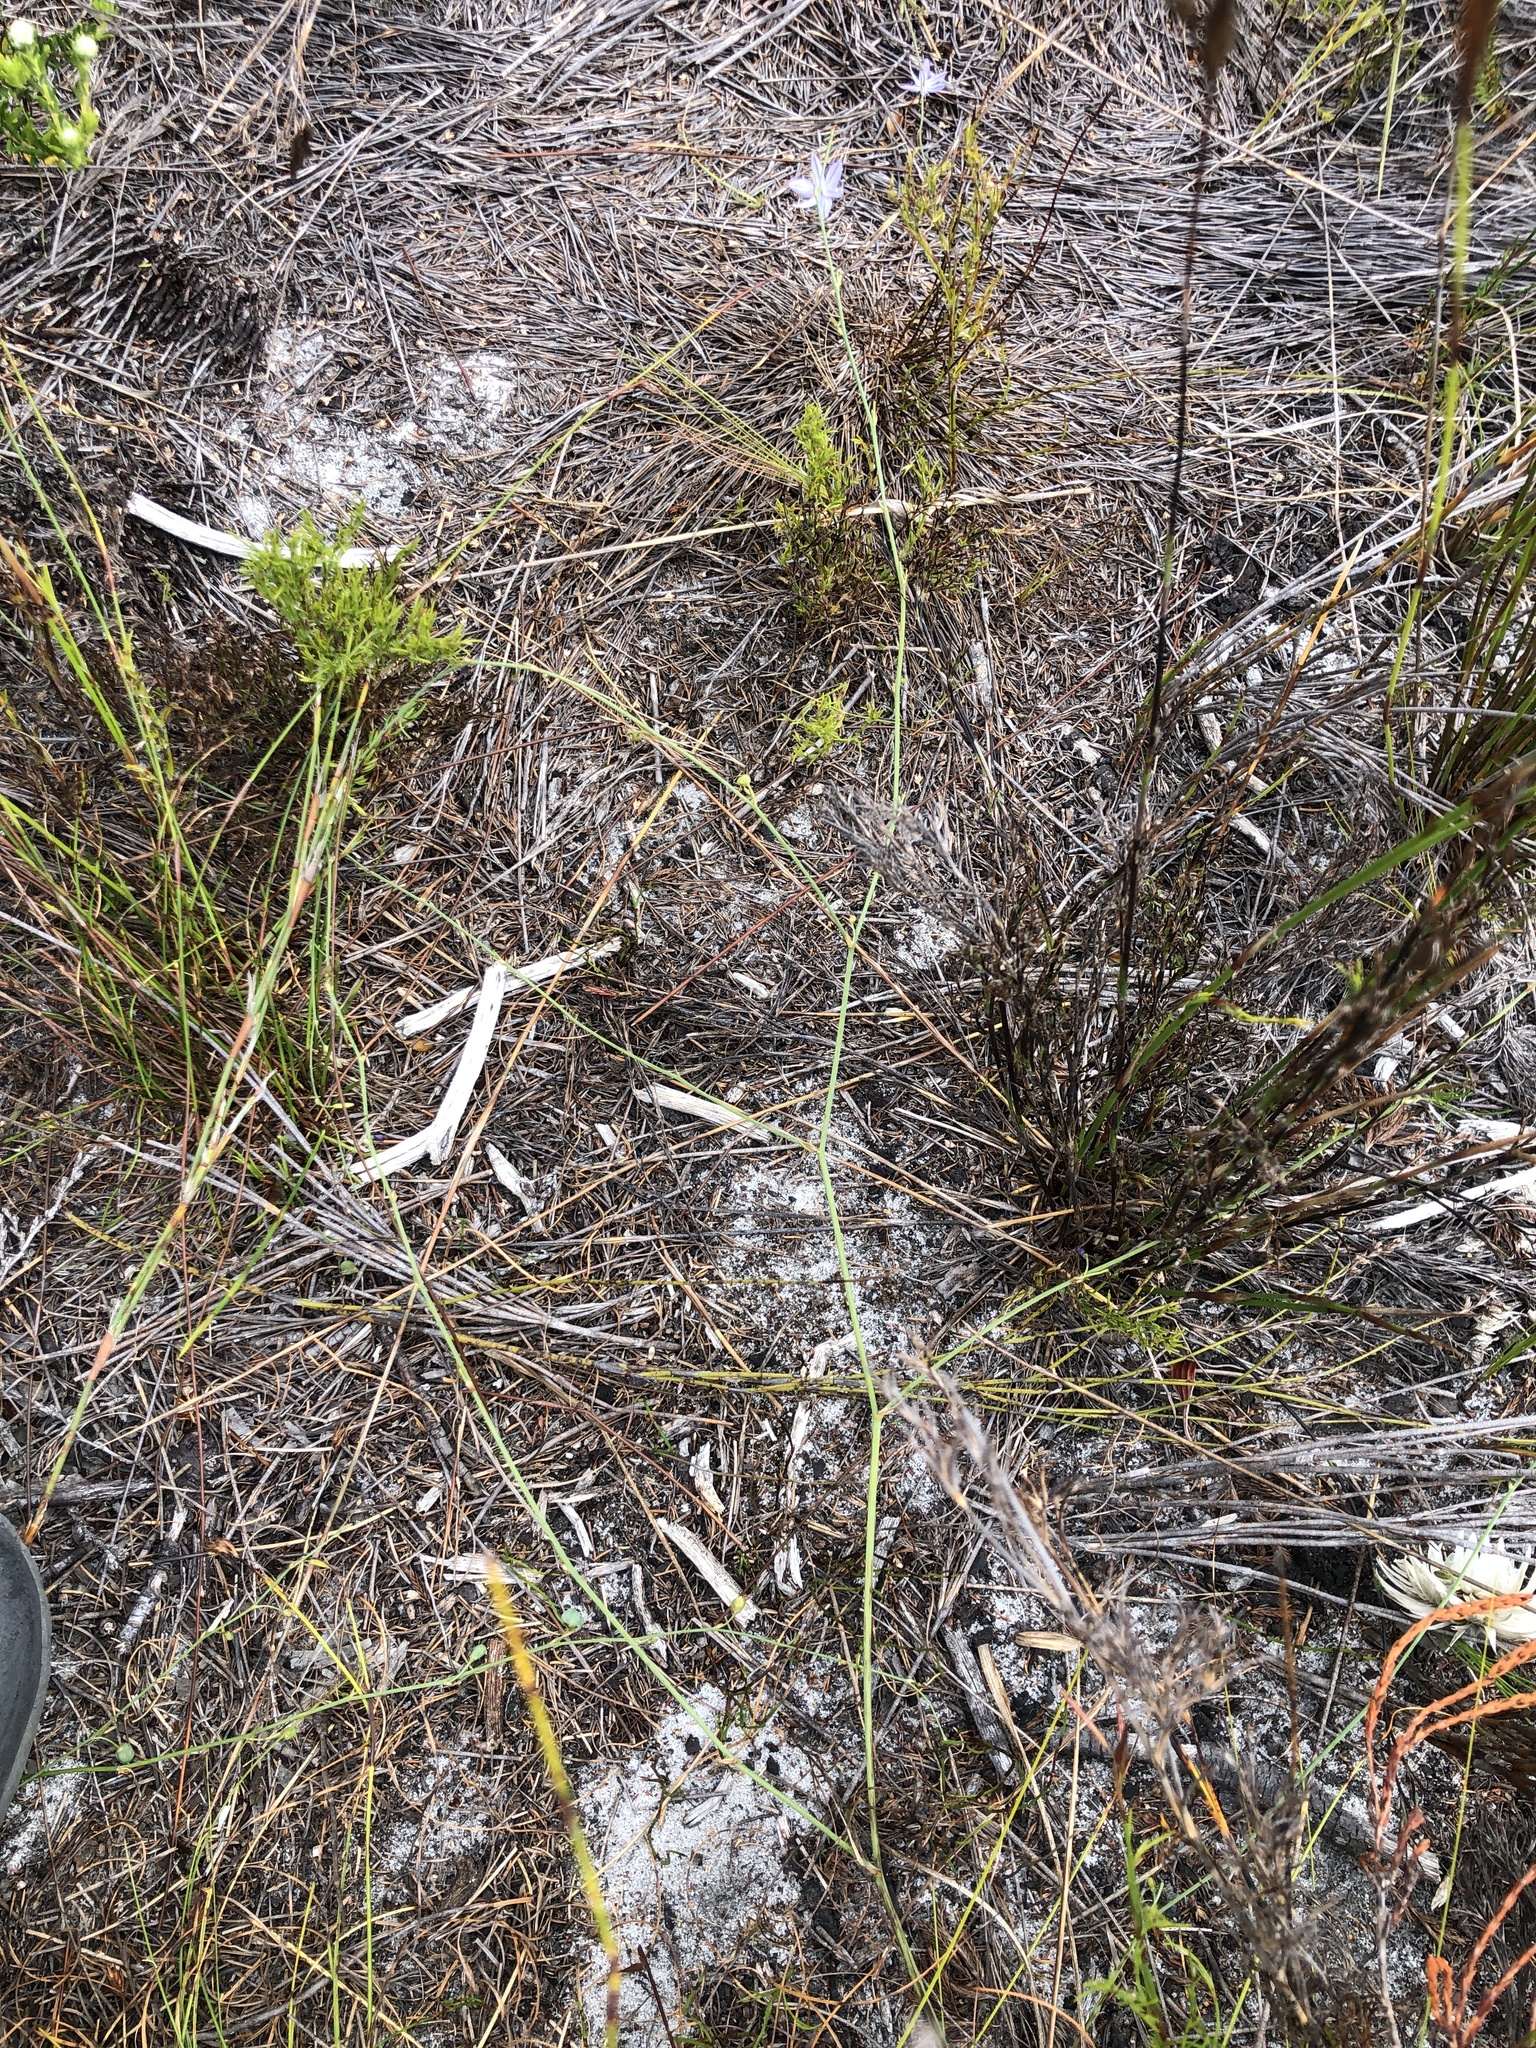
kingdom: Plantae
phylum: Tracheophyta
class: Liliopsida
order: Asparagales
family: Asphodelaceae
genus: Caesia
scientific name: Caesia contorta
